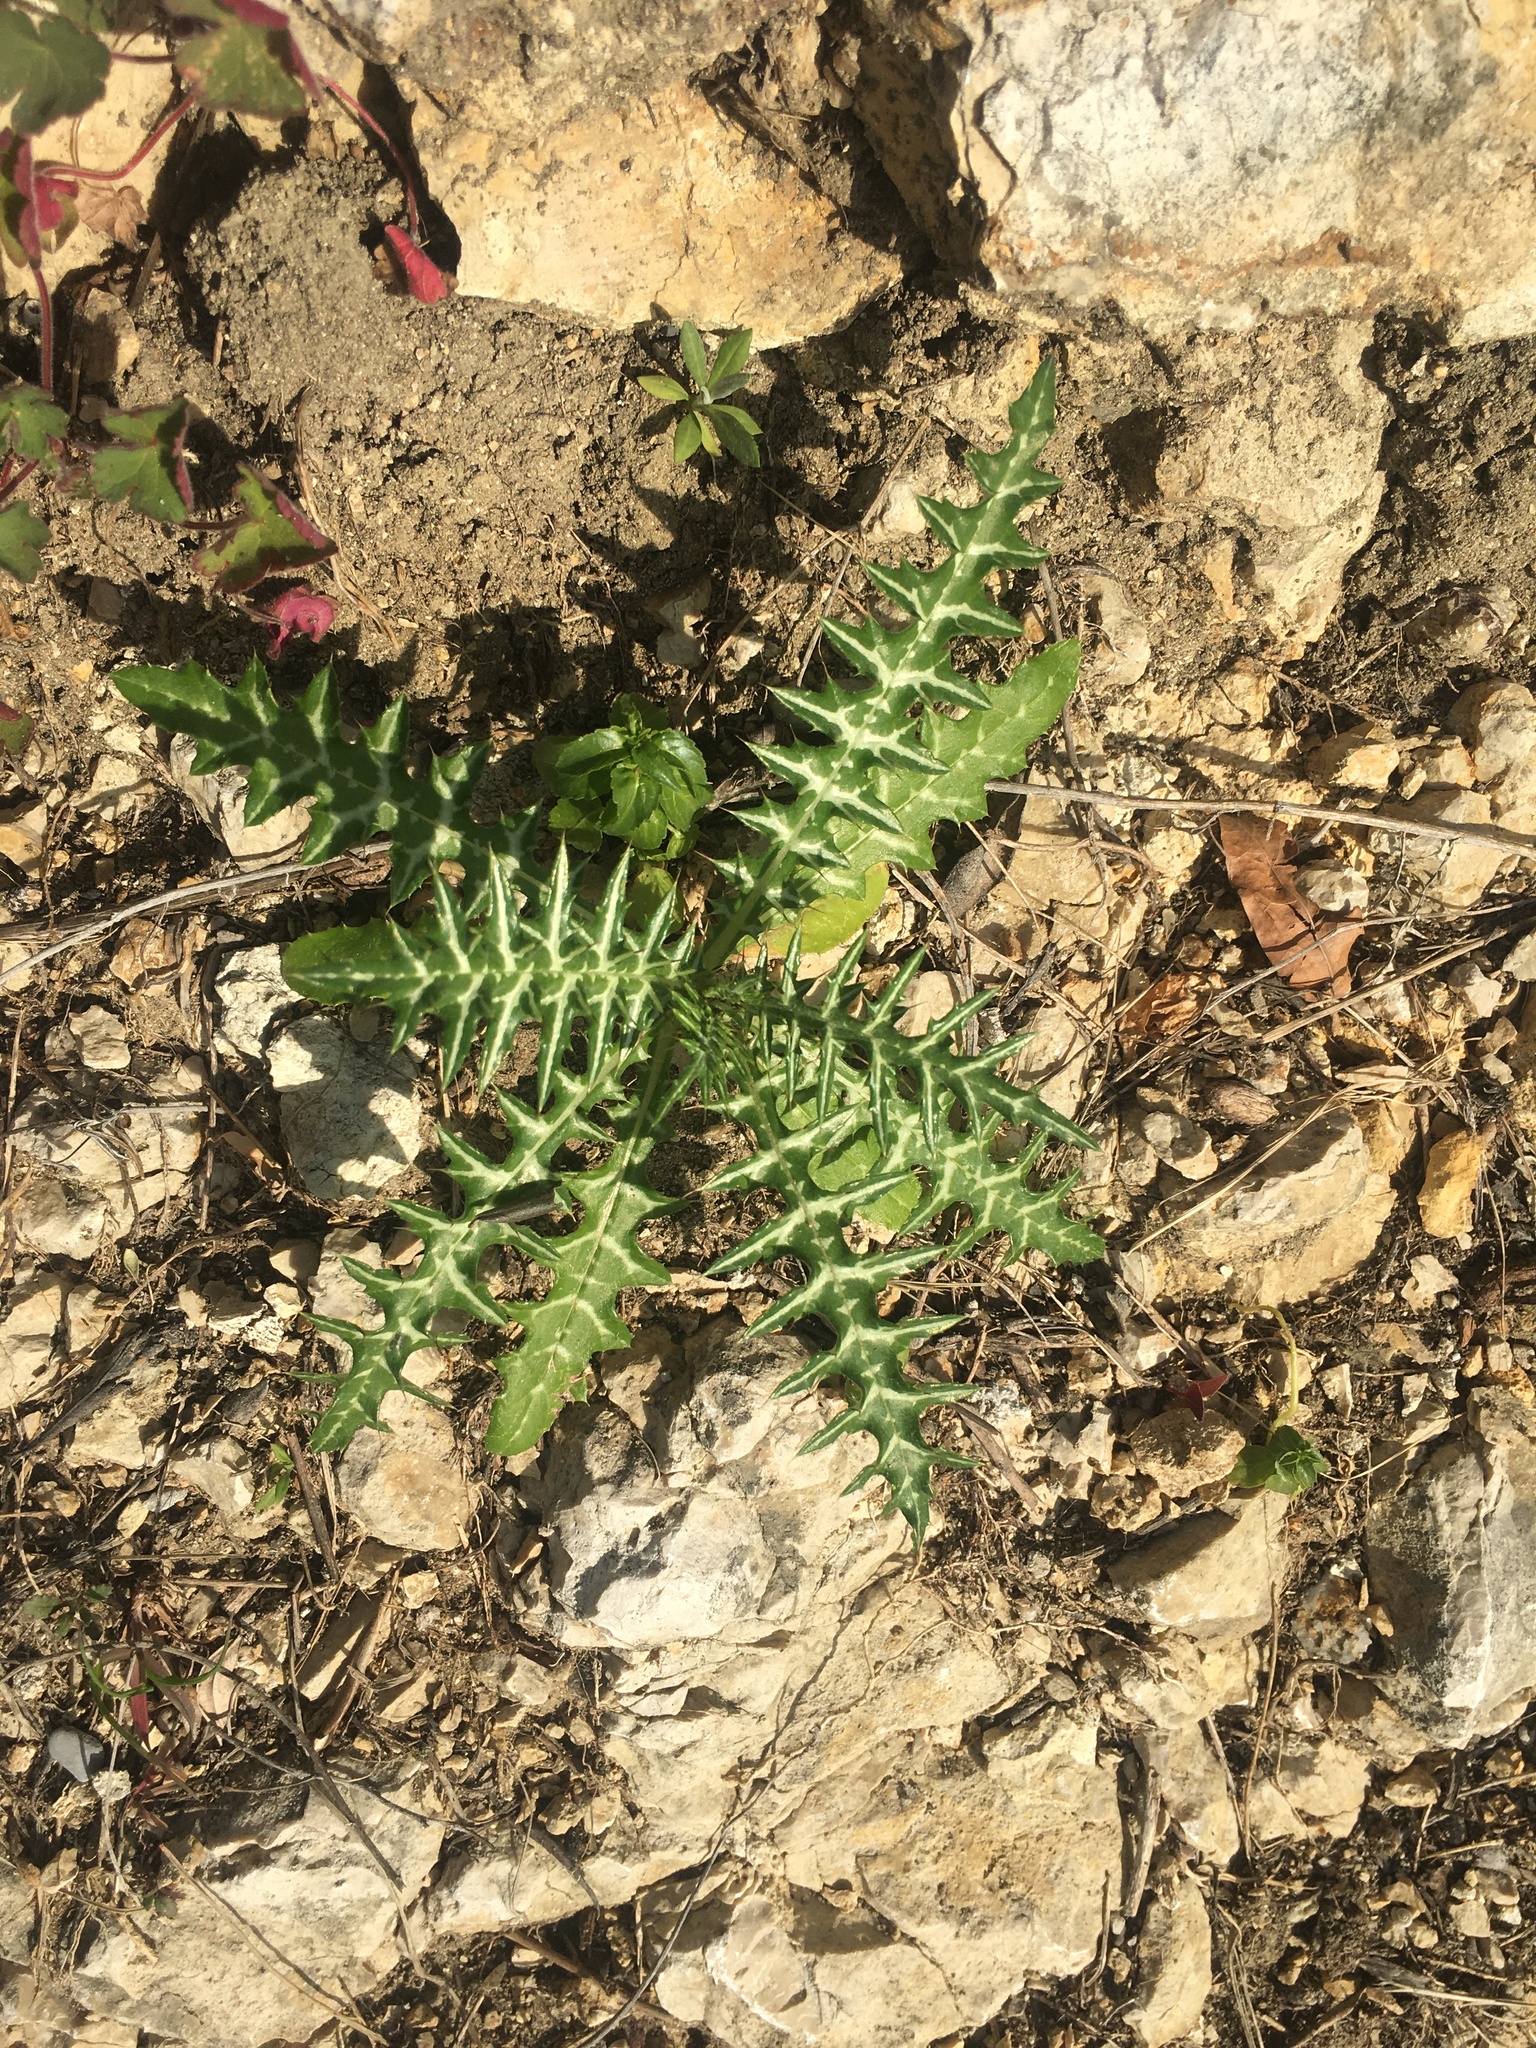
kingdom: Plantae
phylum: Tracheophyta
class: Magnoliopsida
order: Asterales
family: Asteraceae
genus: Galactites
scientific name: Galactites tomentosa
